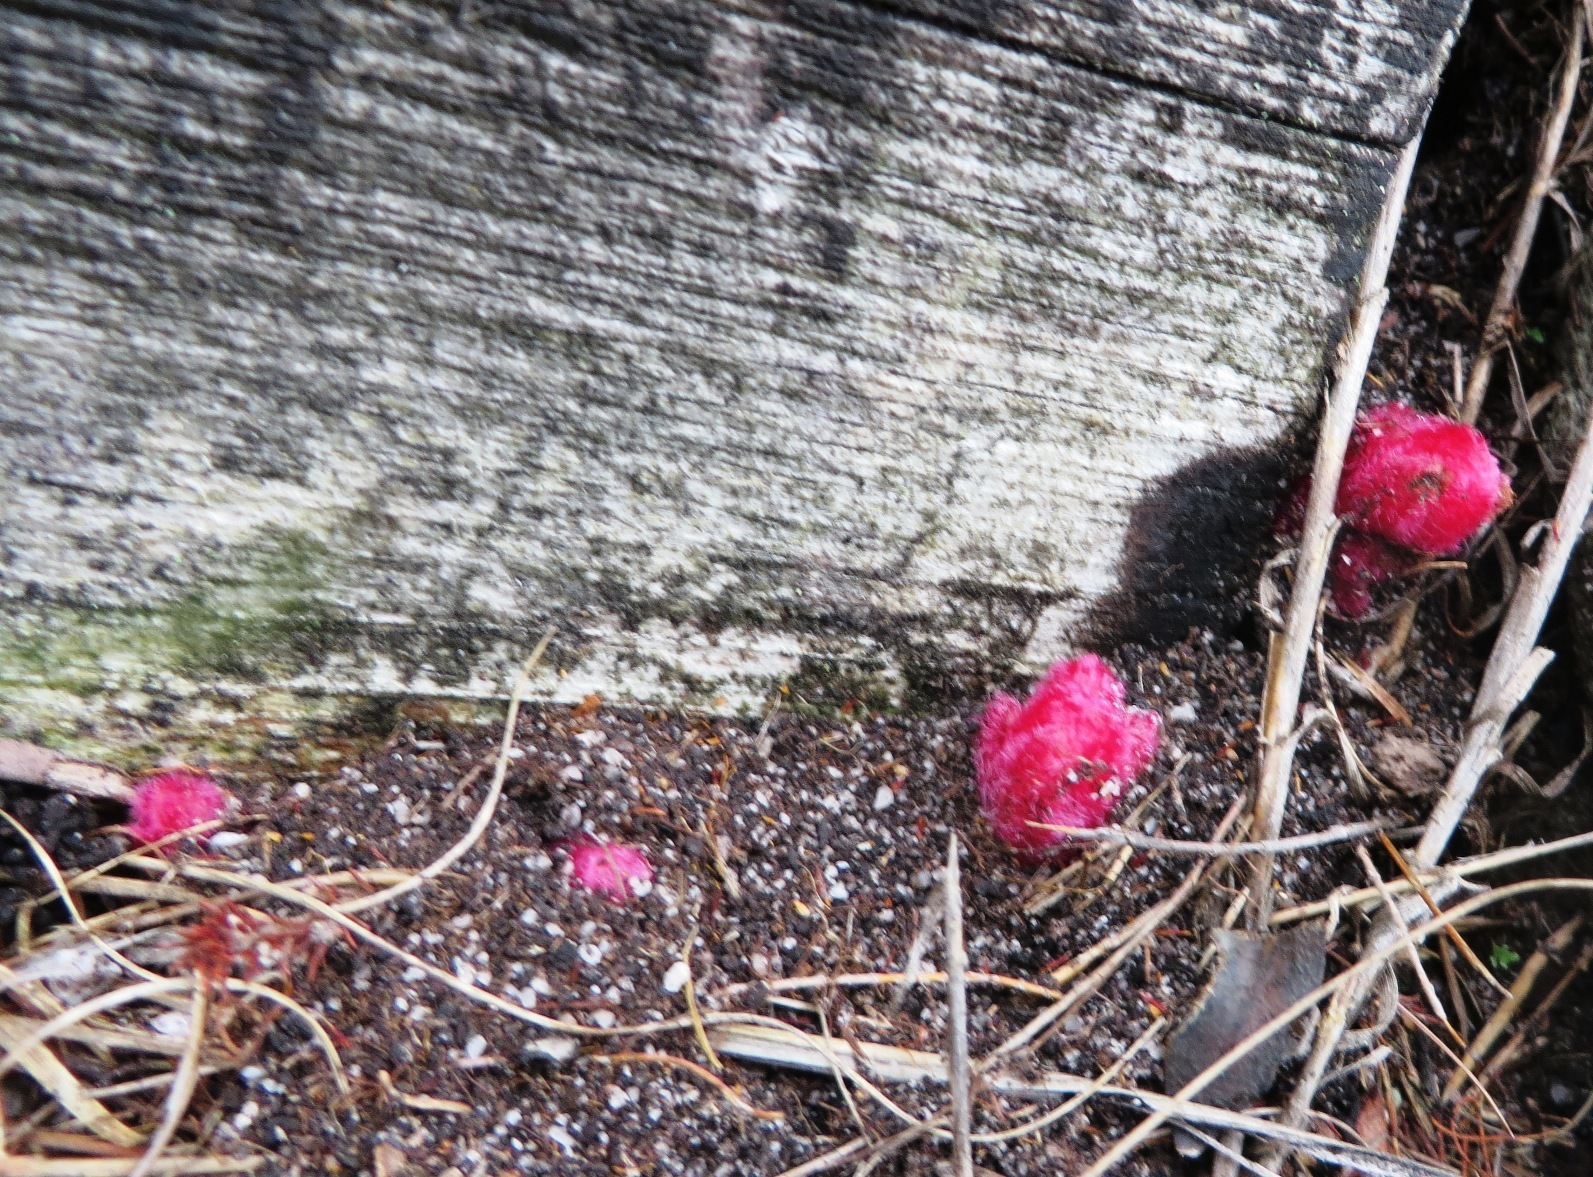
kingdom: Plantae
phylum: Tracheophyta
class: Magnoliopsida
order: Lamiales
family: Orobanchaceae
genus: Hyobanche
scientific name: Hyobanche sanguinea
